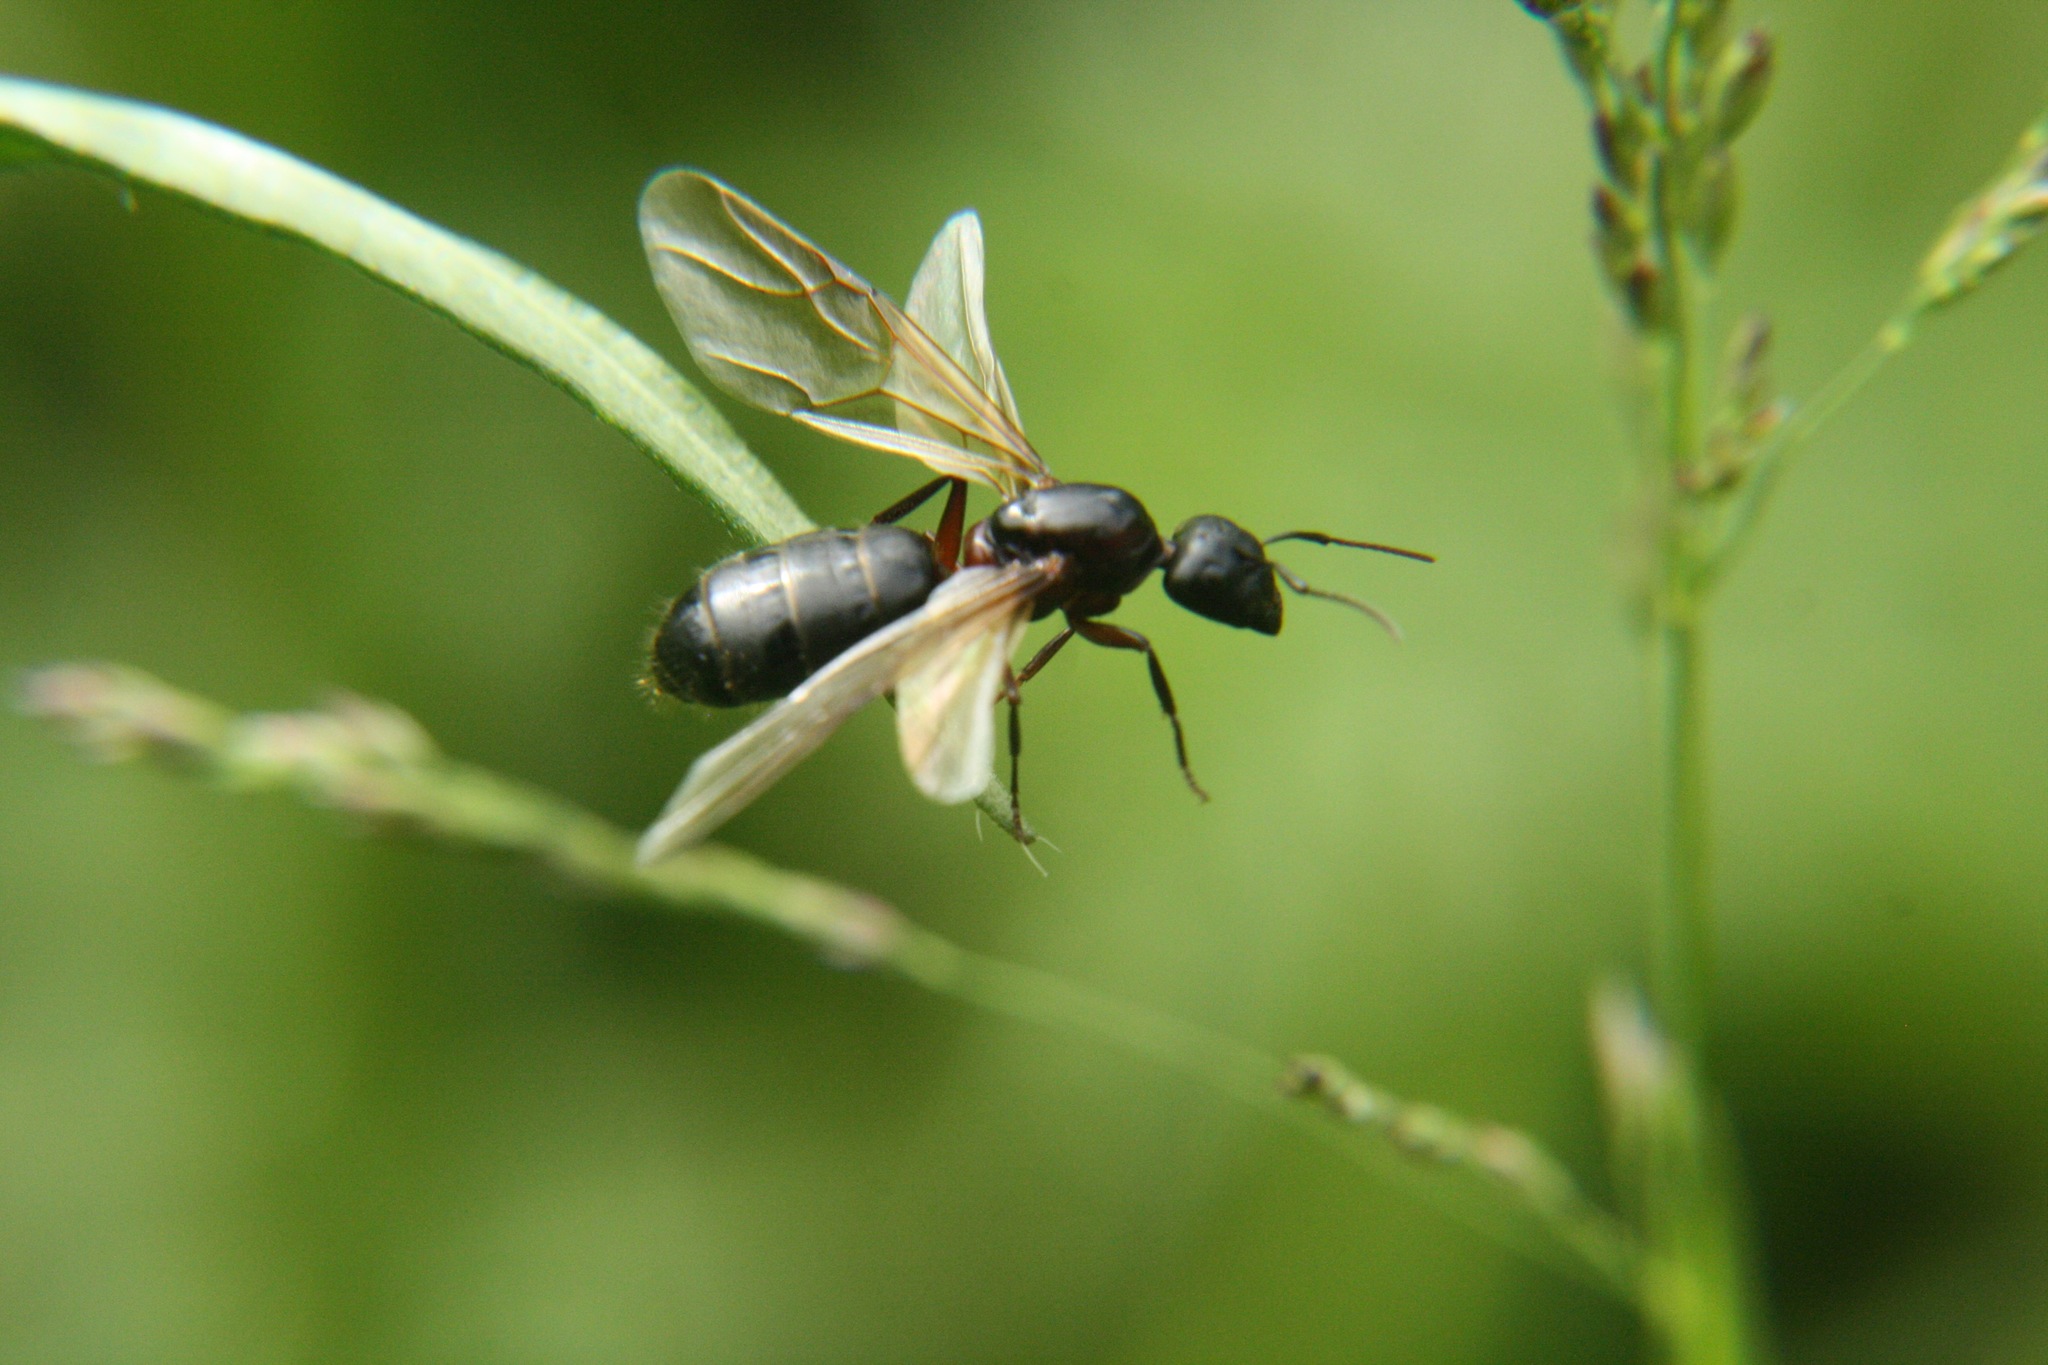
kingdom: Animalia
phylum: Arthropoda
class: Insecta
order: Hymenoptera
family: Formicidae
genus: Camponotus
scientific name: Camponotus herculeanus
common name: Hercules ant
